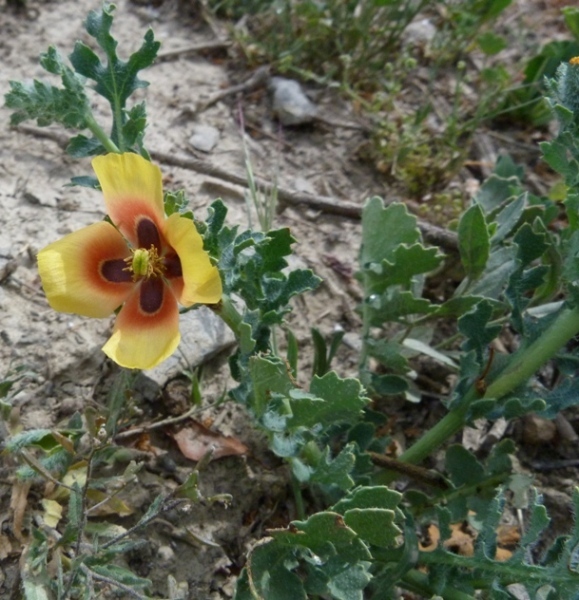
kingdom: Plantae
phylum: Tracheophyta
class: Magnoliopsida
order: Ranunculales
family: Papaveraceae
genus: Glaucium
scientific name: Glaucium corniculatum
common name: Red horned-poppy
